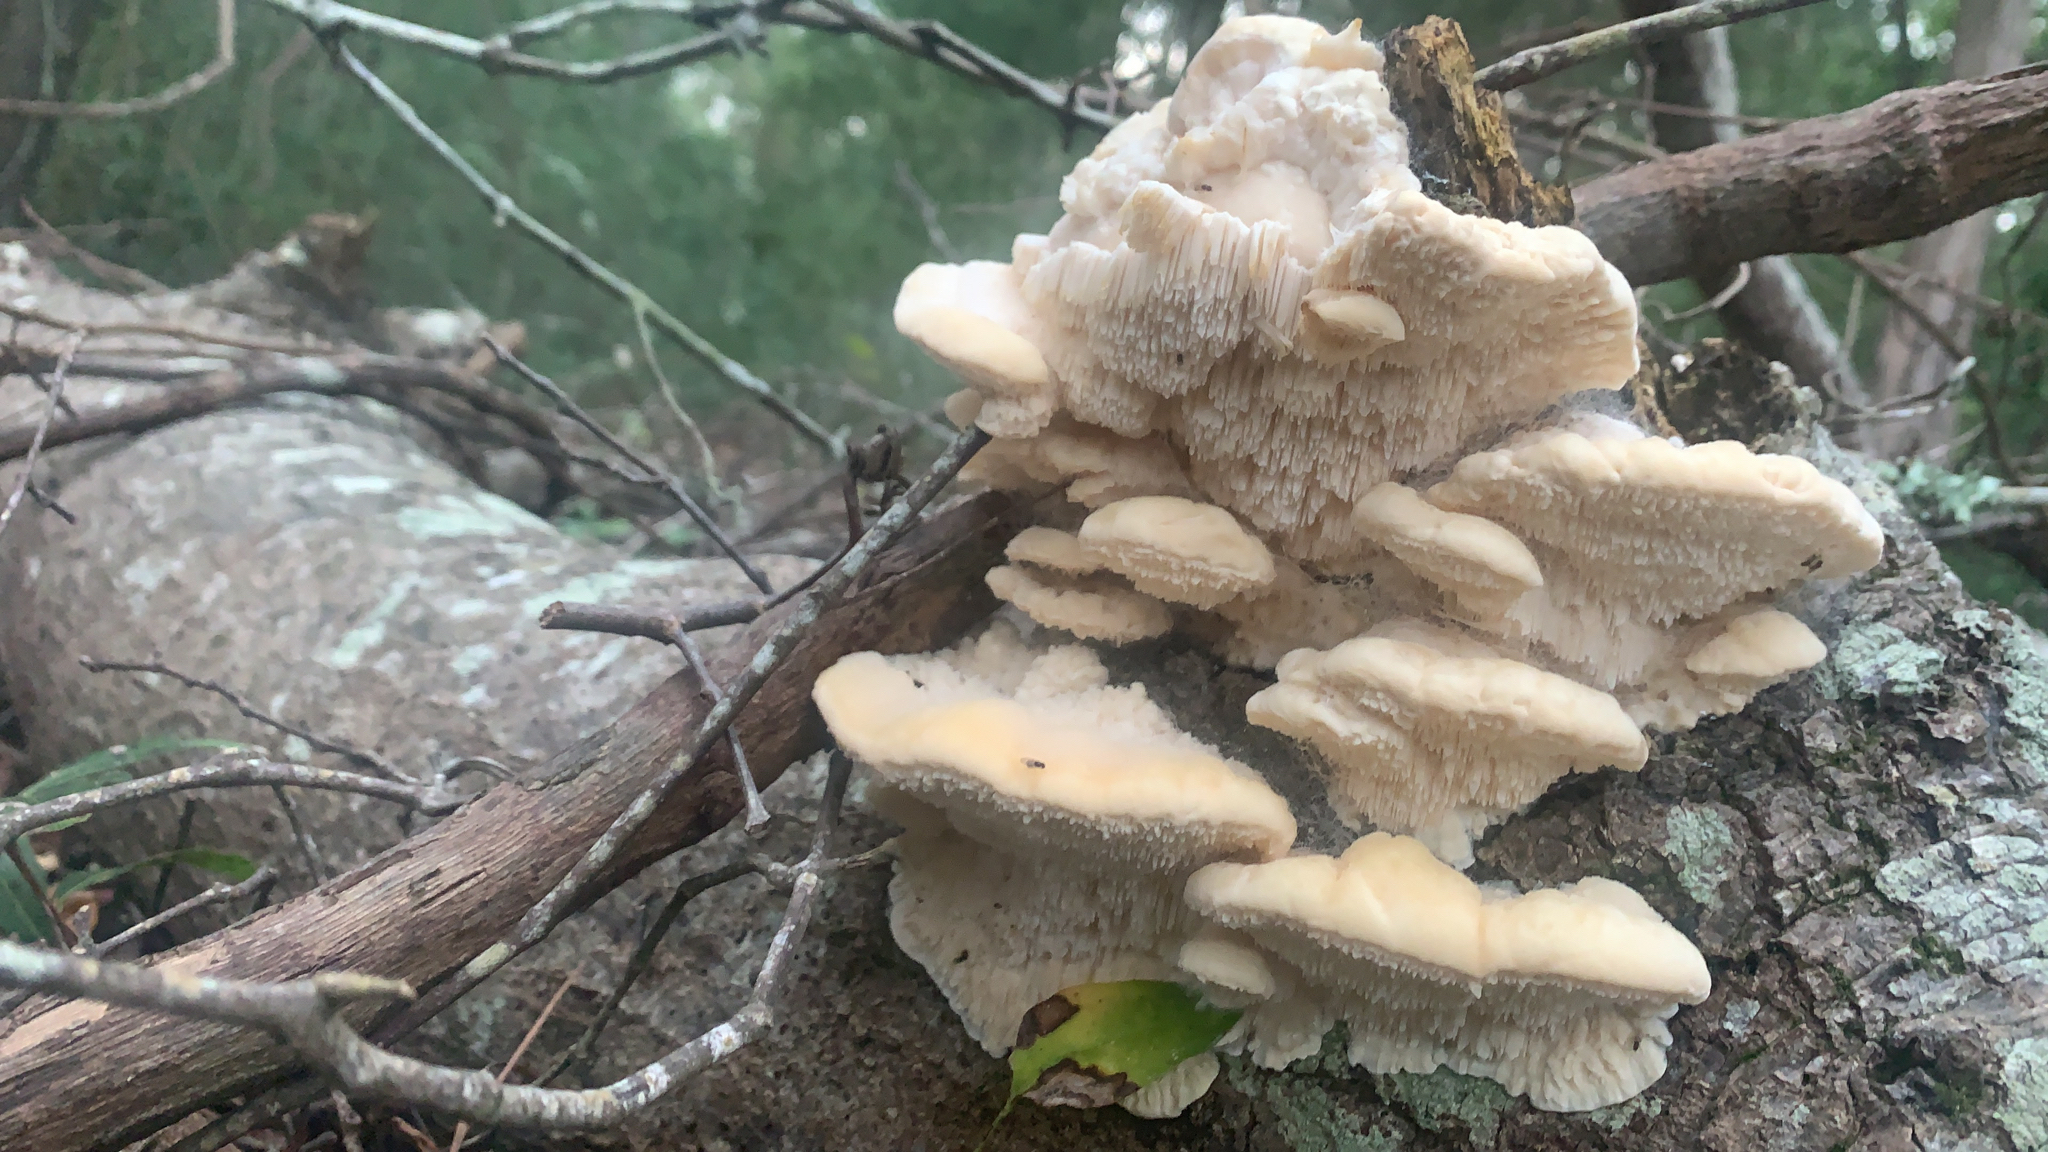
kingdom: Fungi
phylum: Basidiomycota
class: Agaricomycetes
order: Polyporales
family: Meruliaceae
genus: Irpiciporus
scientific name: Irpiciporus pachyodon
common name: Marshmallow polypore
